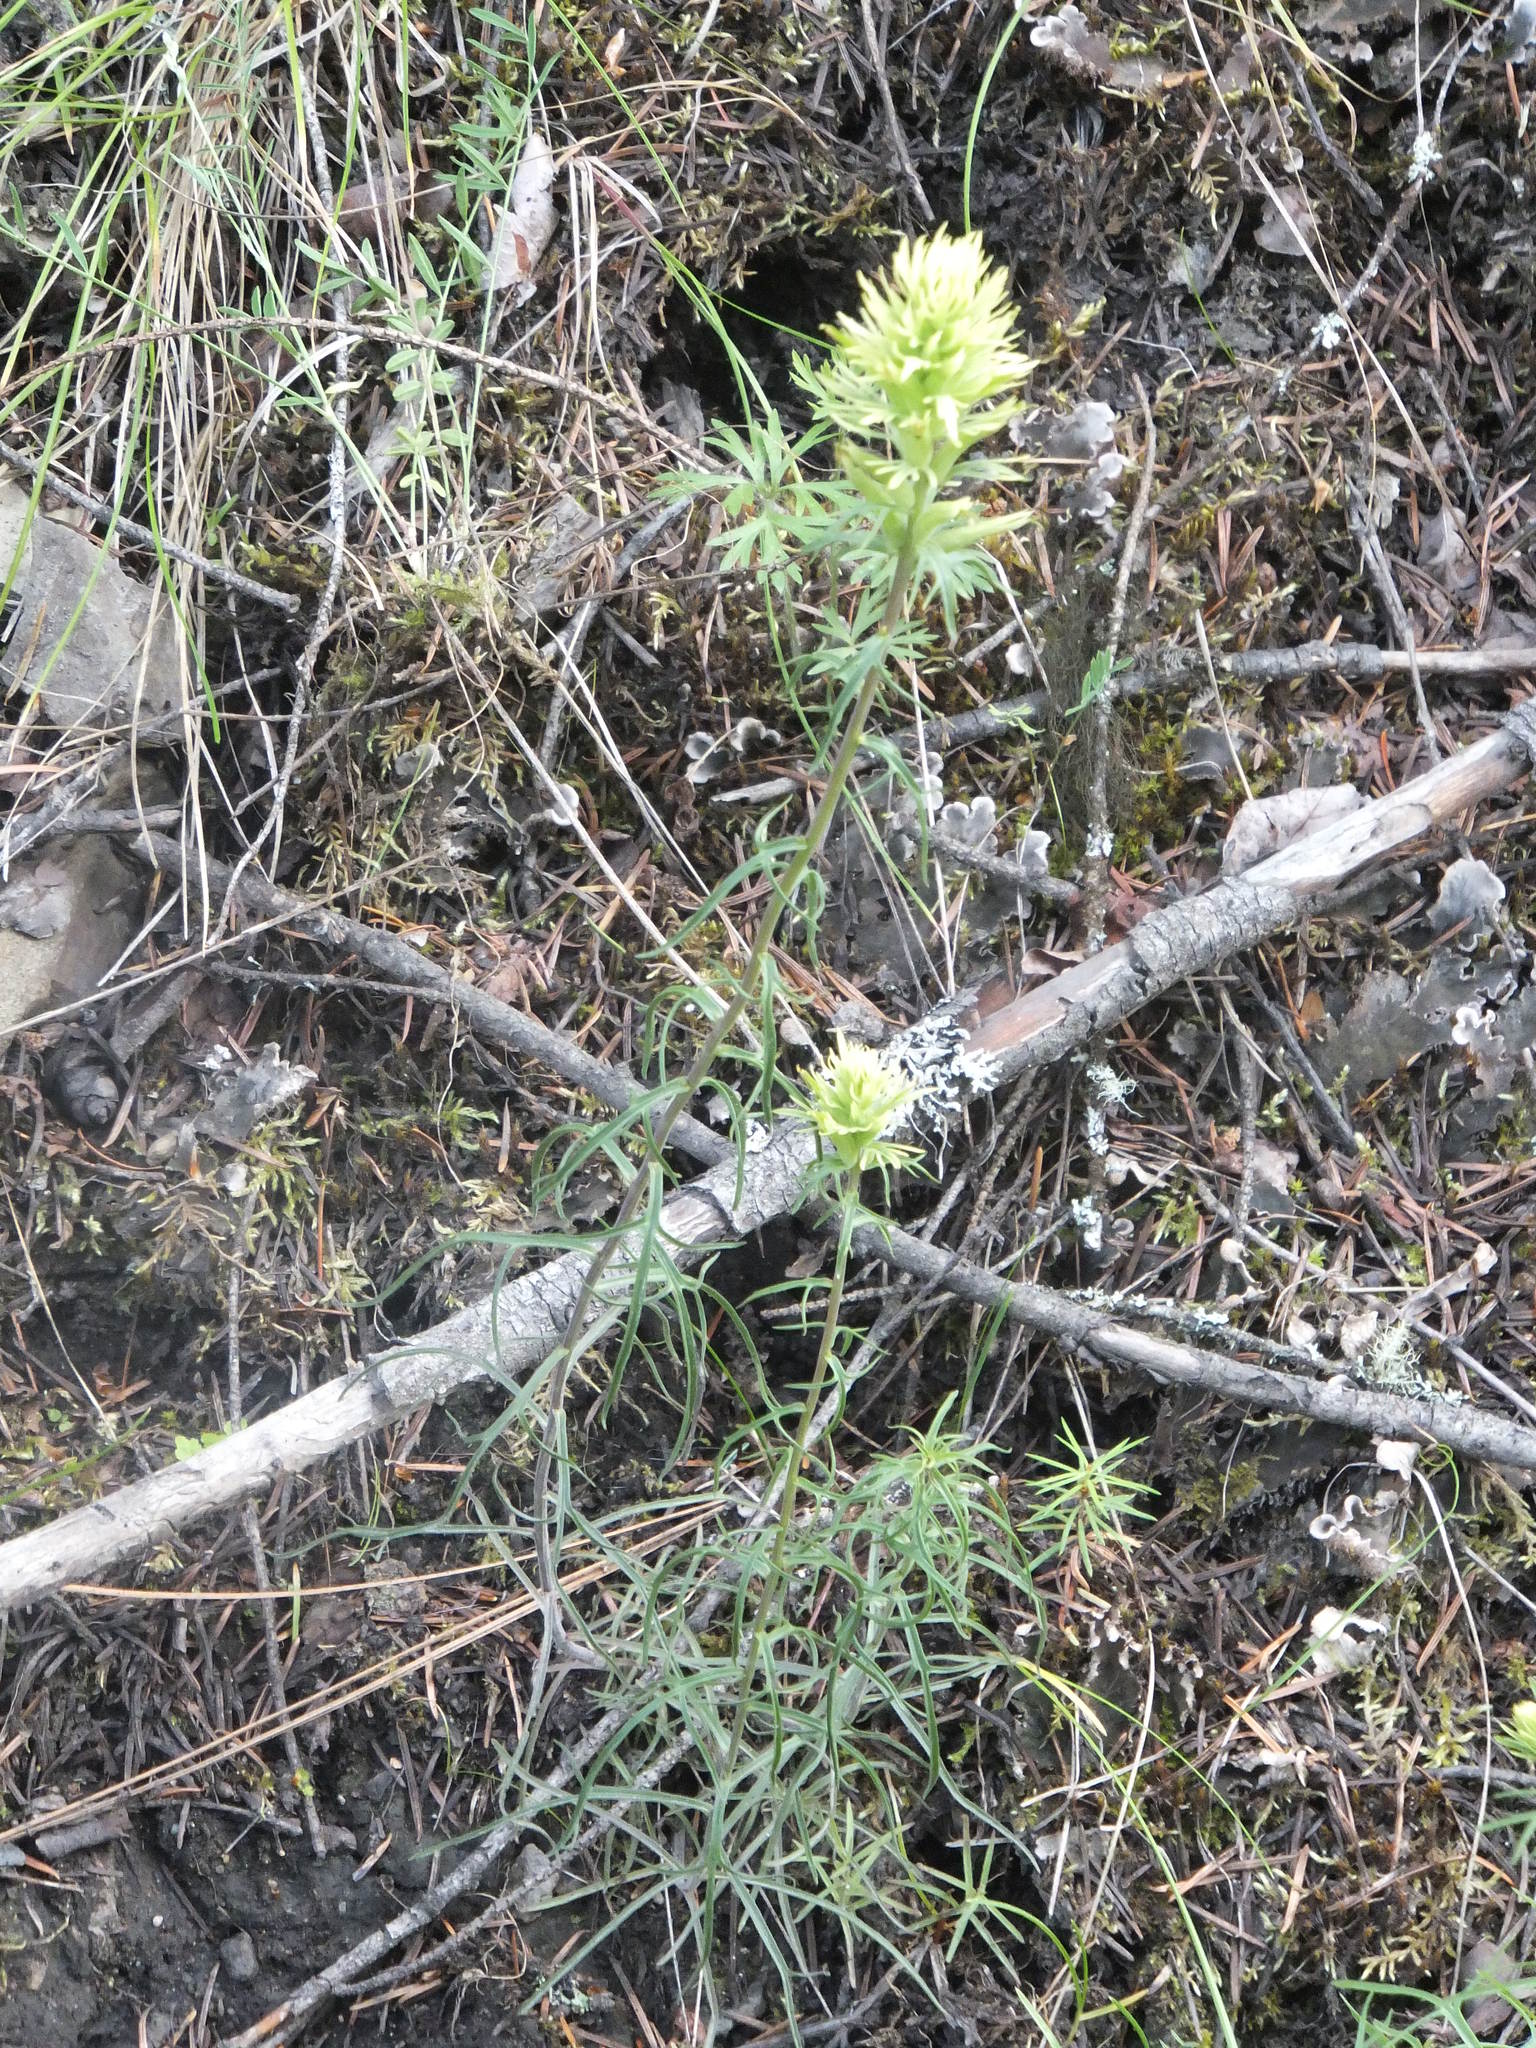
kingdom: Plantae
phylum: Tracheophyta
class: Magnoliopsida
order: Lamiales
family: Orobanchaceae
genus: Castilleja
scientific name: Castilleja cervina
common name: Deer paintbrush
